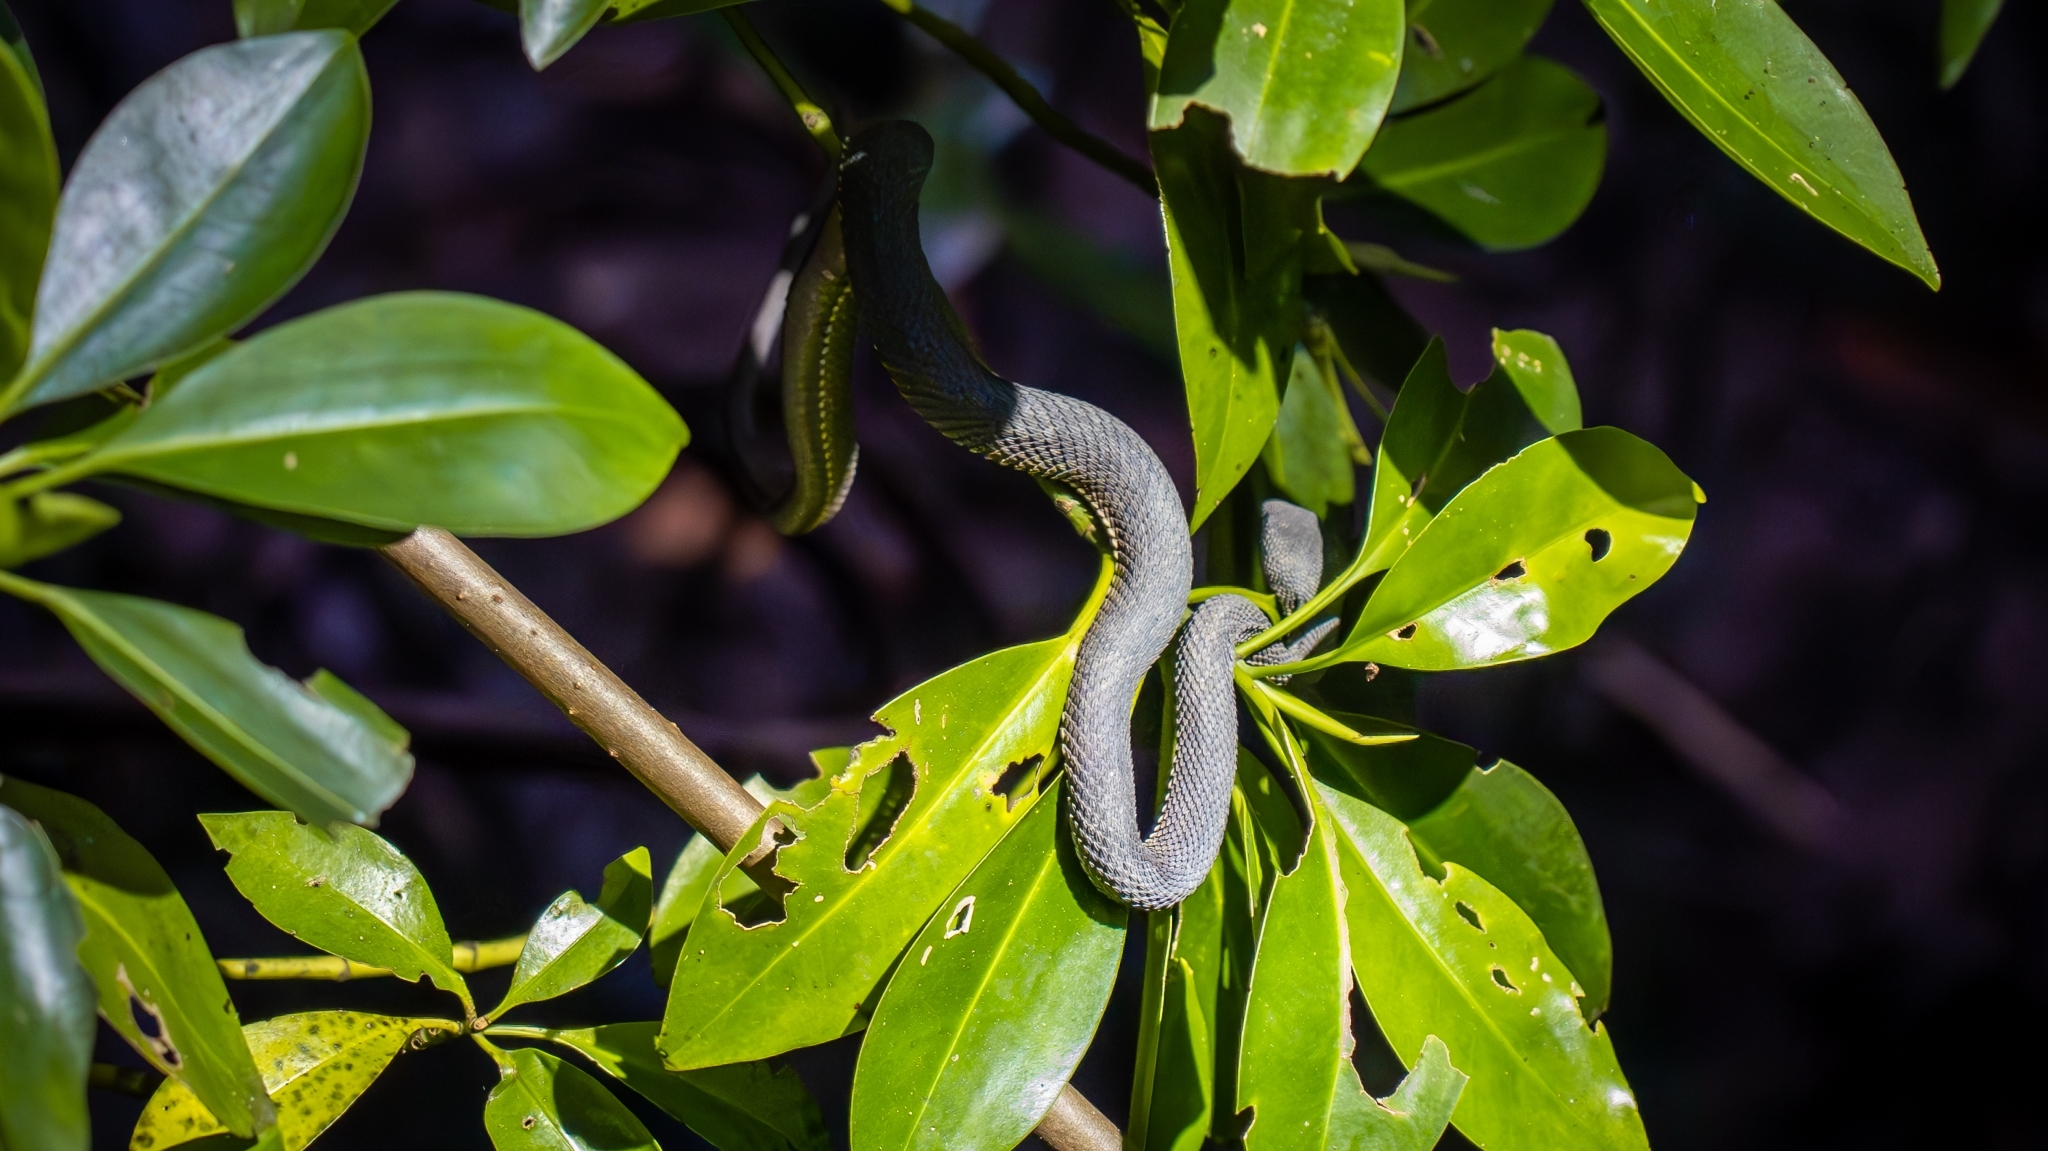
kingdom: Animalia
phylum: Chordata
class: Squamata
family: Viperidae
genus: Trimeresurus
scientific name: Trimeresurus purpureomaculatus
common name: Shore pit viper
